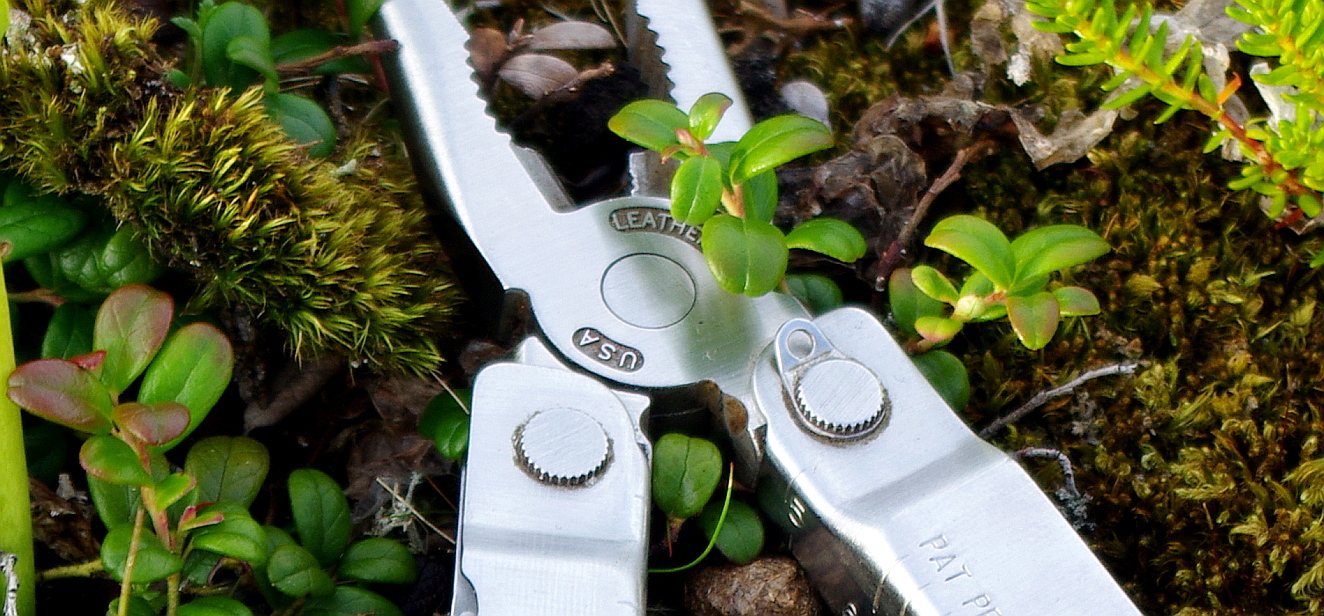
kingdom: Plantae
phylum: Tracheophyta
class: Magnoliopsida
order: Ericales
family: Ericaceae
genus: Vaccinium
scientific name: Vaccinium vitis-idaea
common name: Cowberry
